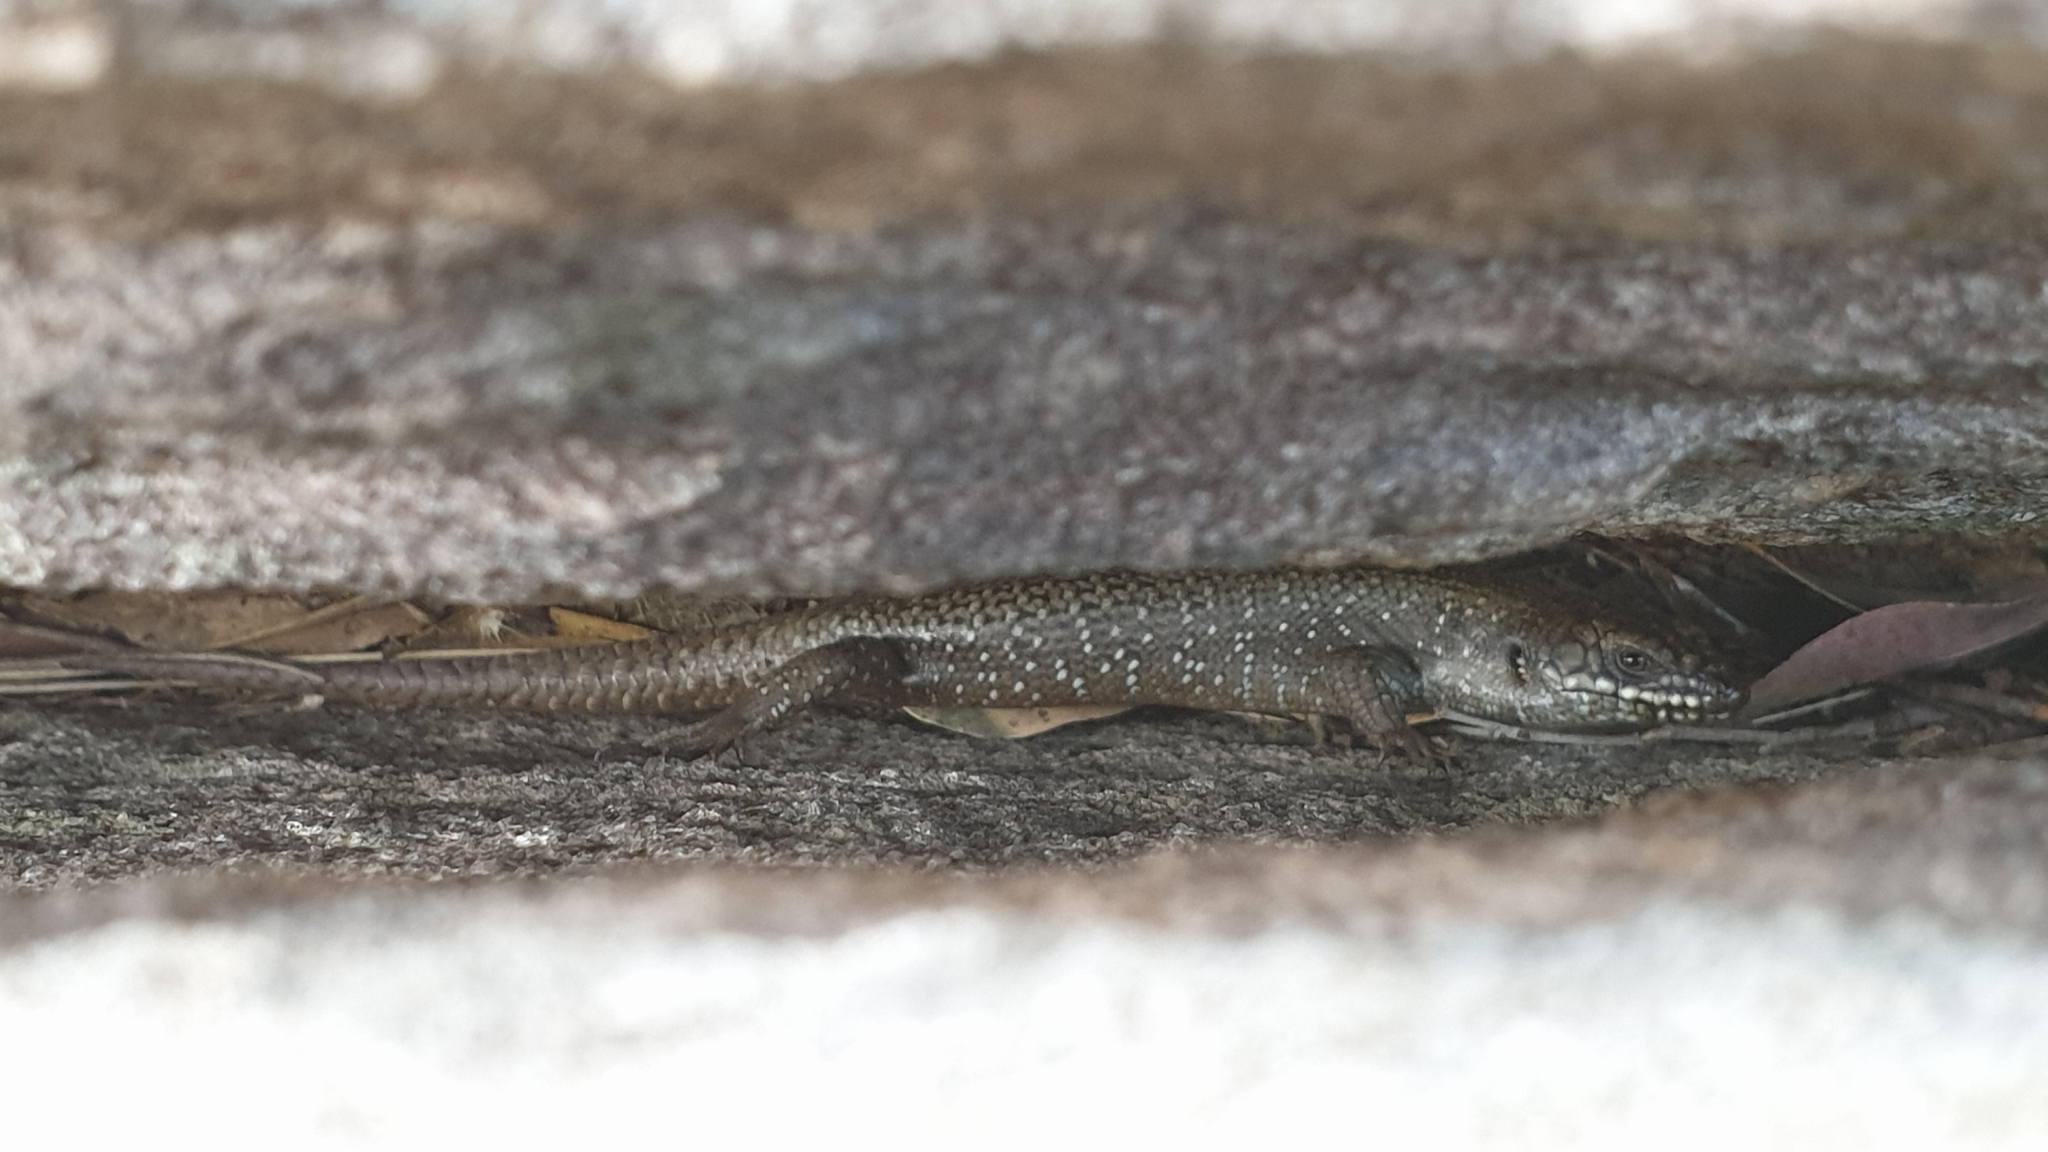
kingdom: Animalia
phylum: Chordata
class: Squamata
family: Scincidae
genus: Egernia
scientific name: Egernia striolata
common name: Tree skink
